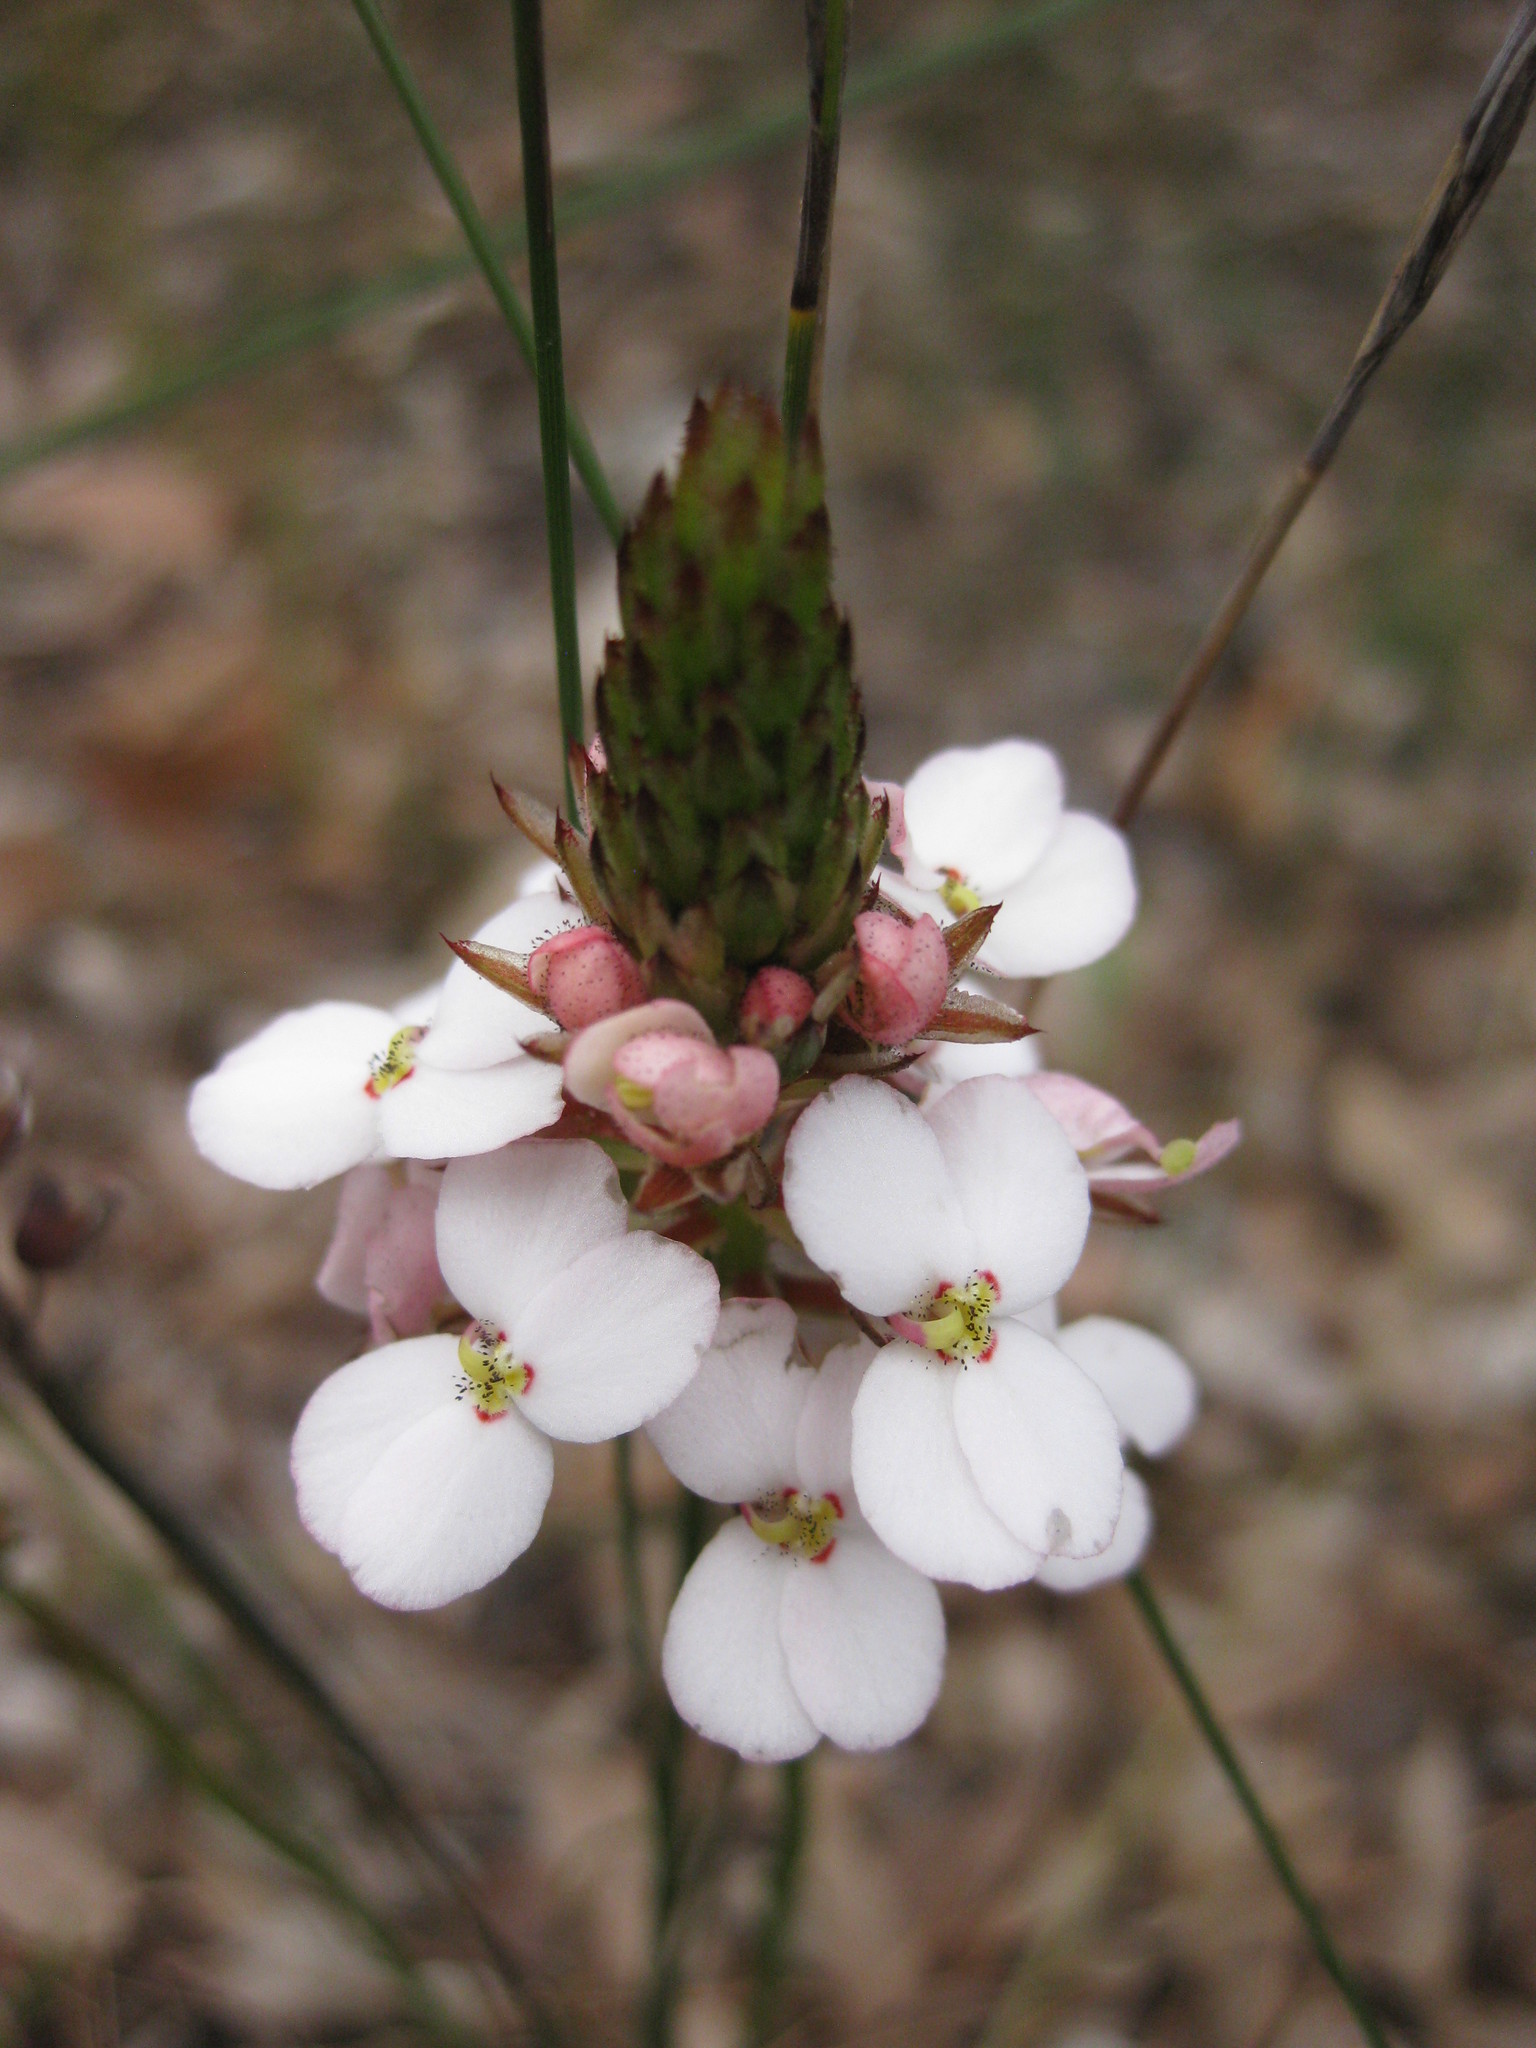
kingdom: Plantae
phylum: Tracheophyta
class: Magnoliopsida
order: Asterales
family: Stylidiaceae
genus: Stylidium
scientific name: Stylidium scariosum
